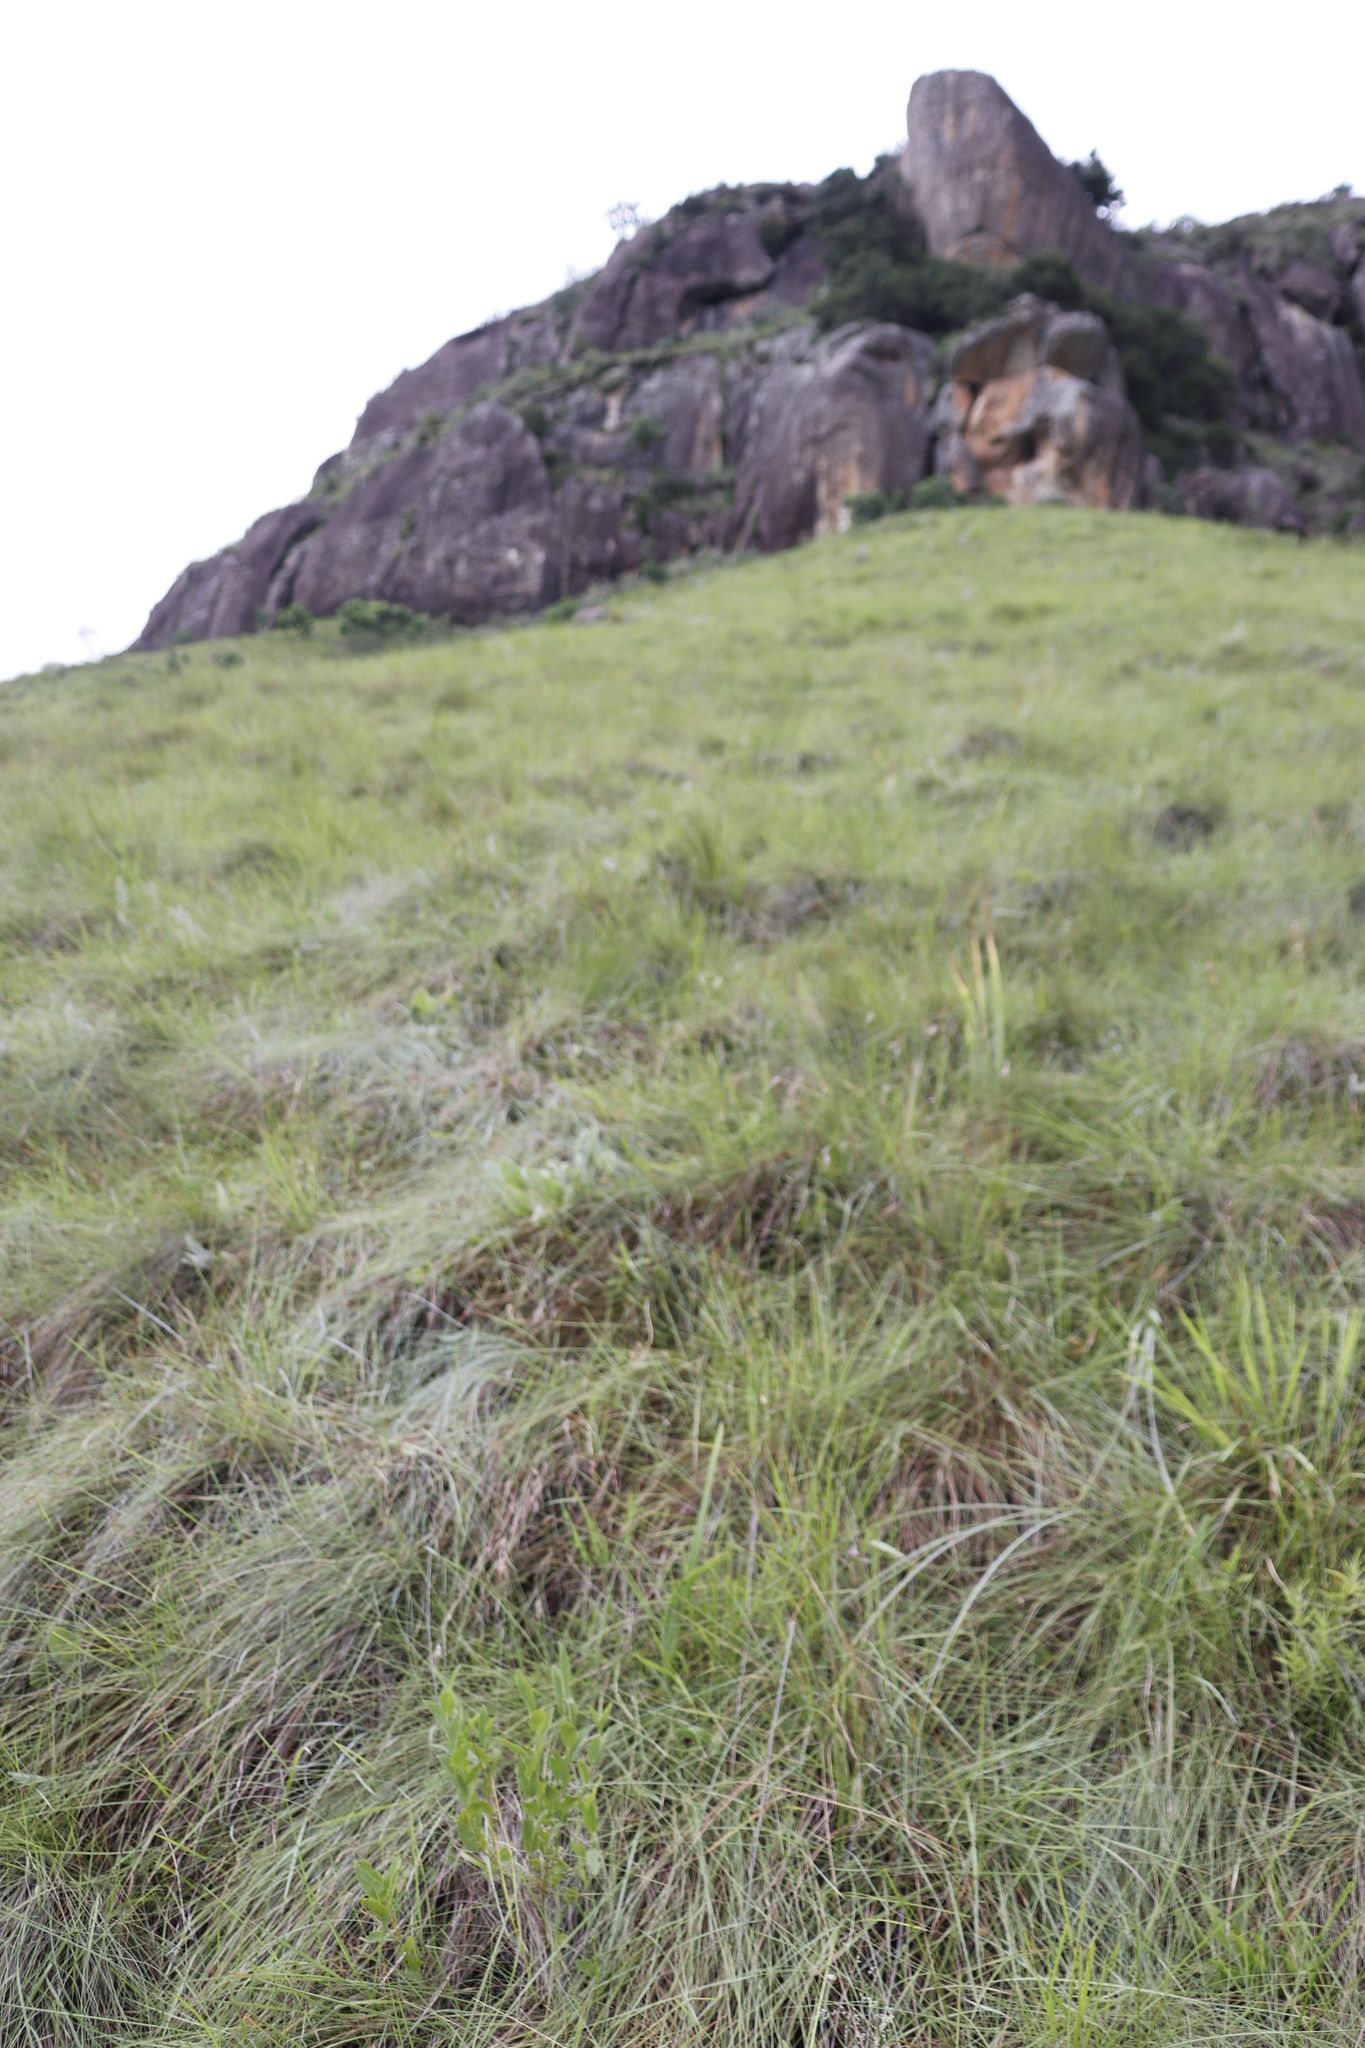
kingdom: Plantae
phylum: Tracheophyta
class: Liliopsida
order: Poales
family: Poaceae
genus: Themeda
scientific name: Themeda triandra
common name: Kangaroo grass
